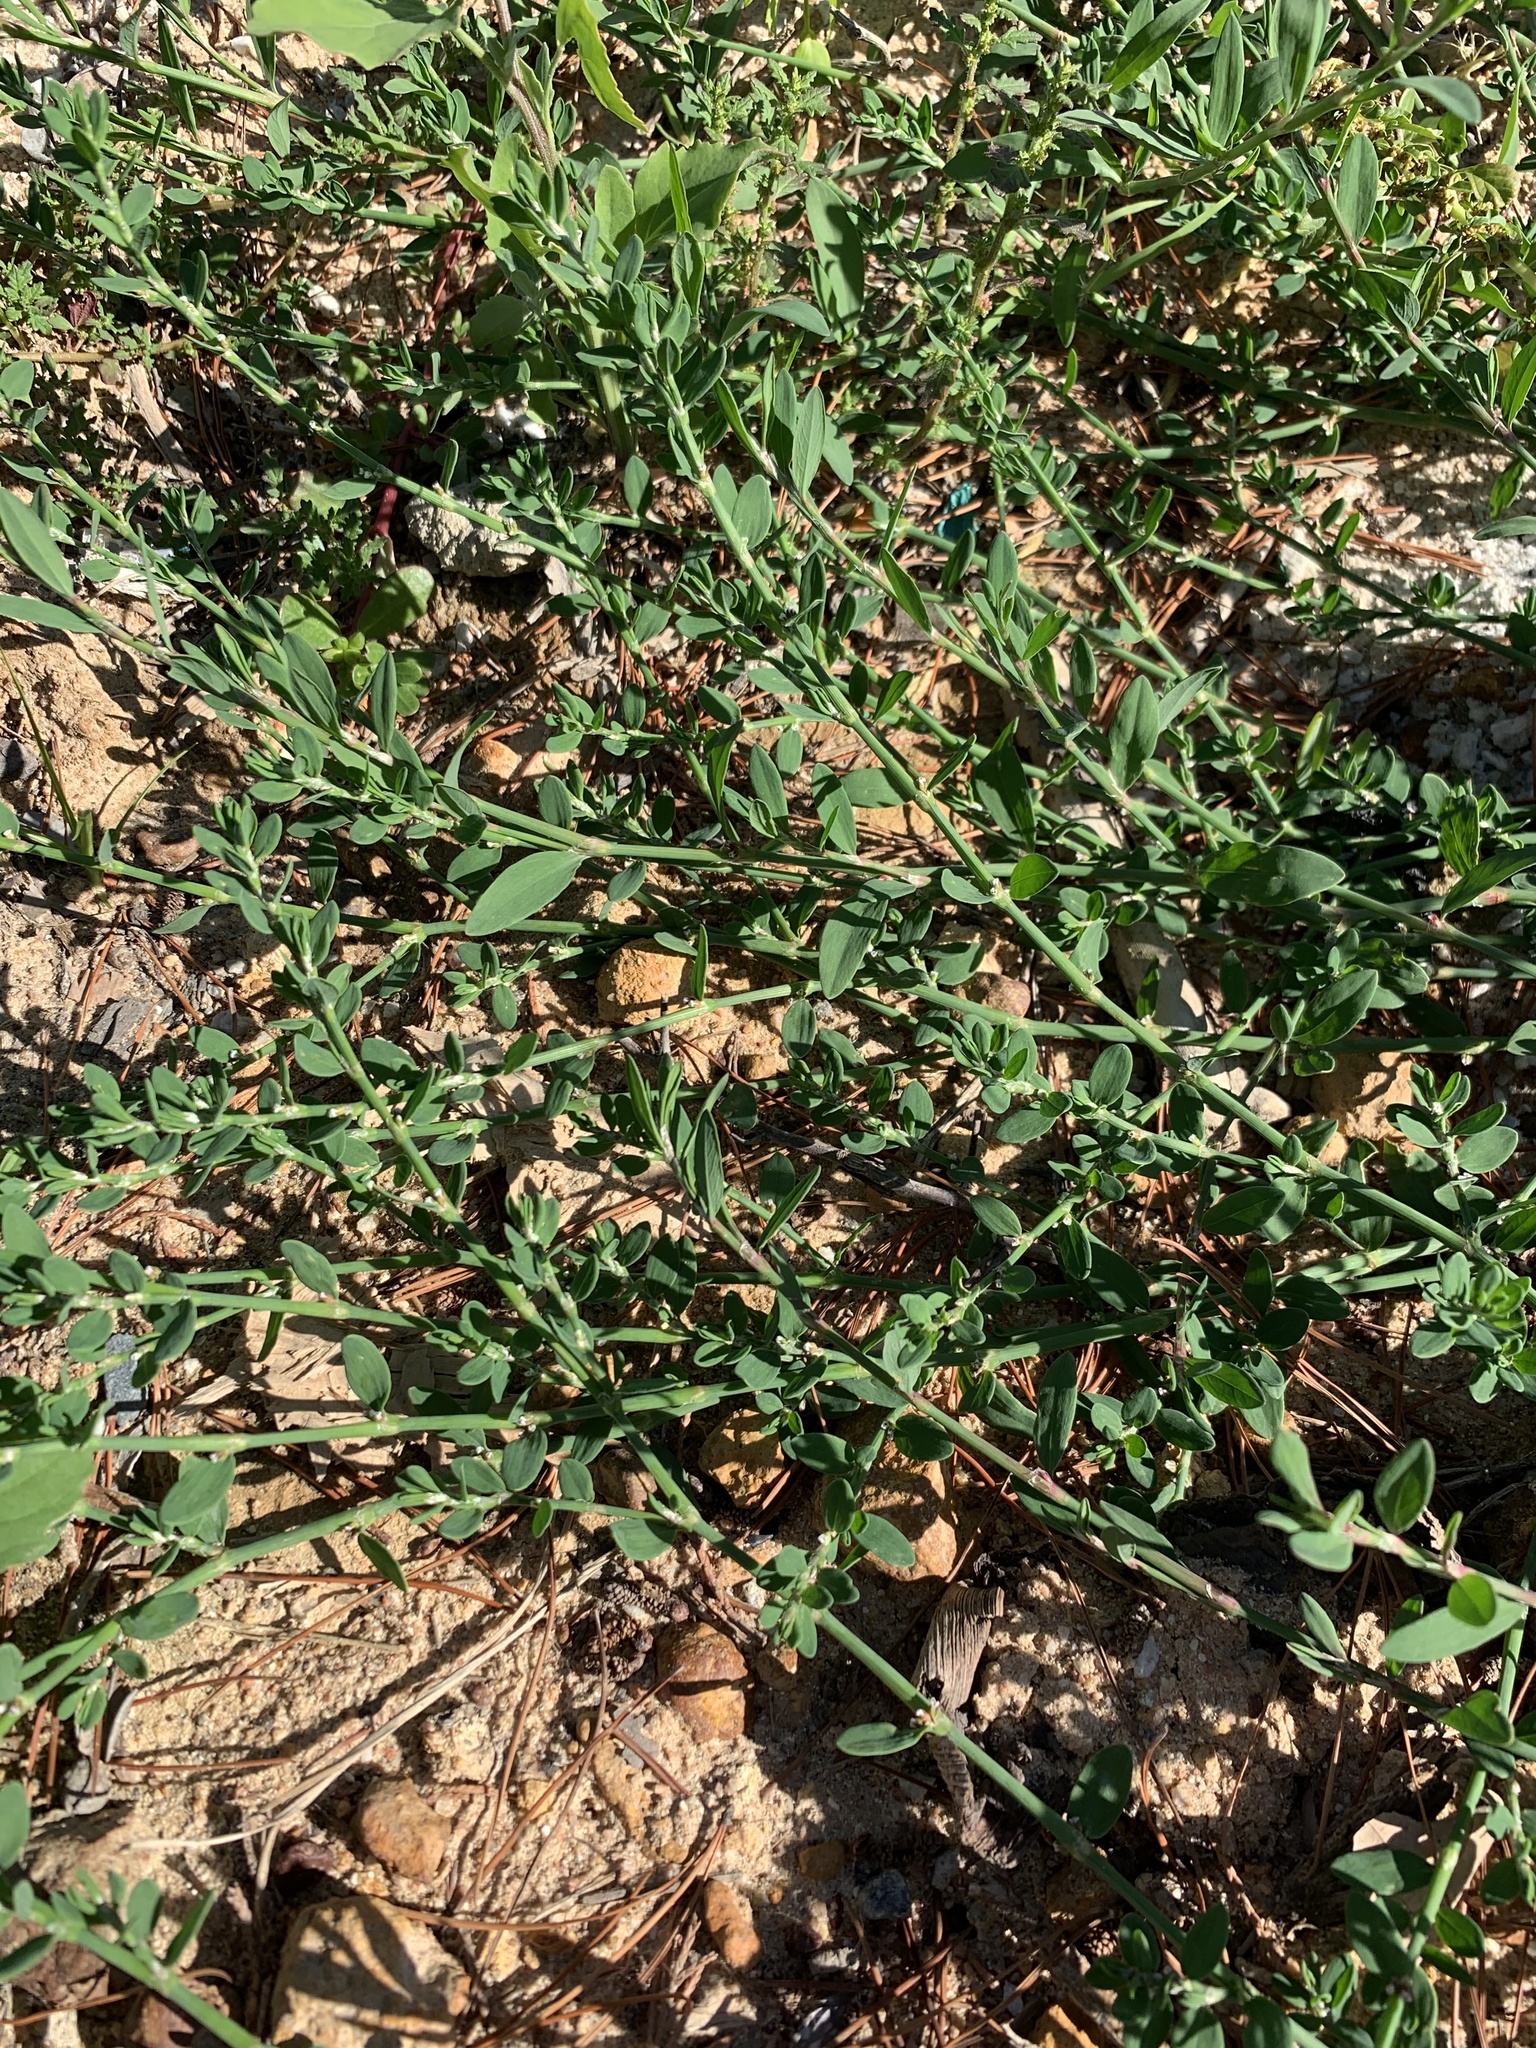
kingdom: Plantae
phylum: Tracheophyta
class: Magnoliopsida
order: Caryophyllales
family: Polygonaceae
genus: Polygonum
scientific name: Polygonum aviculare
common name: Prostrate knotweed
